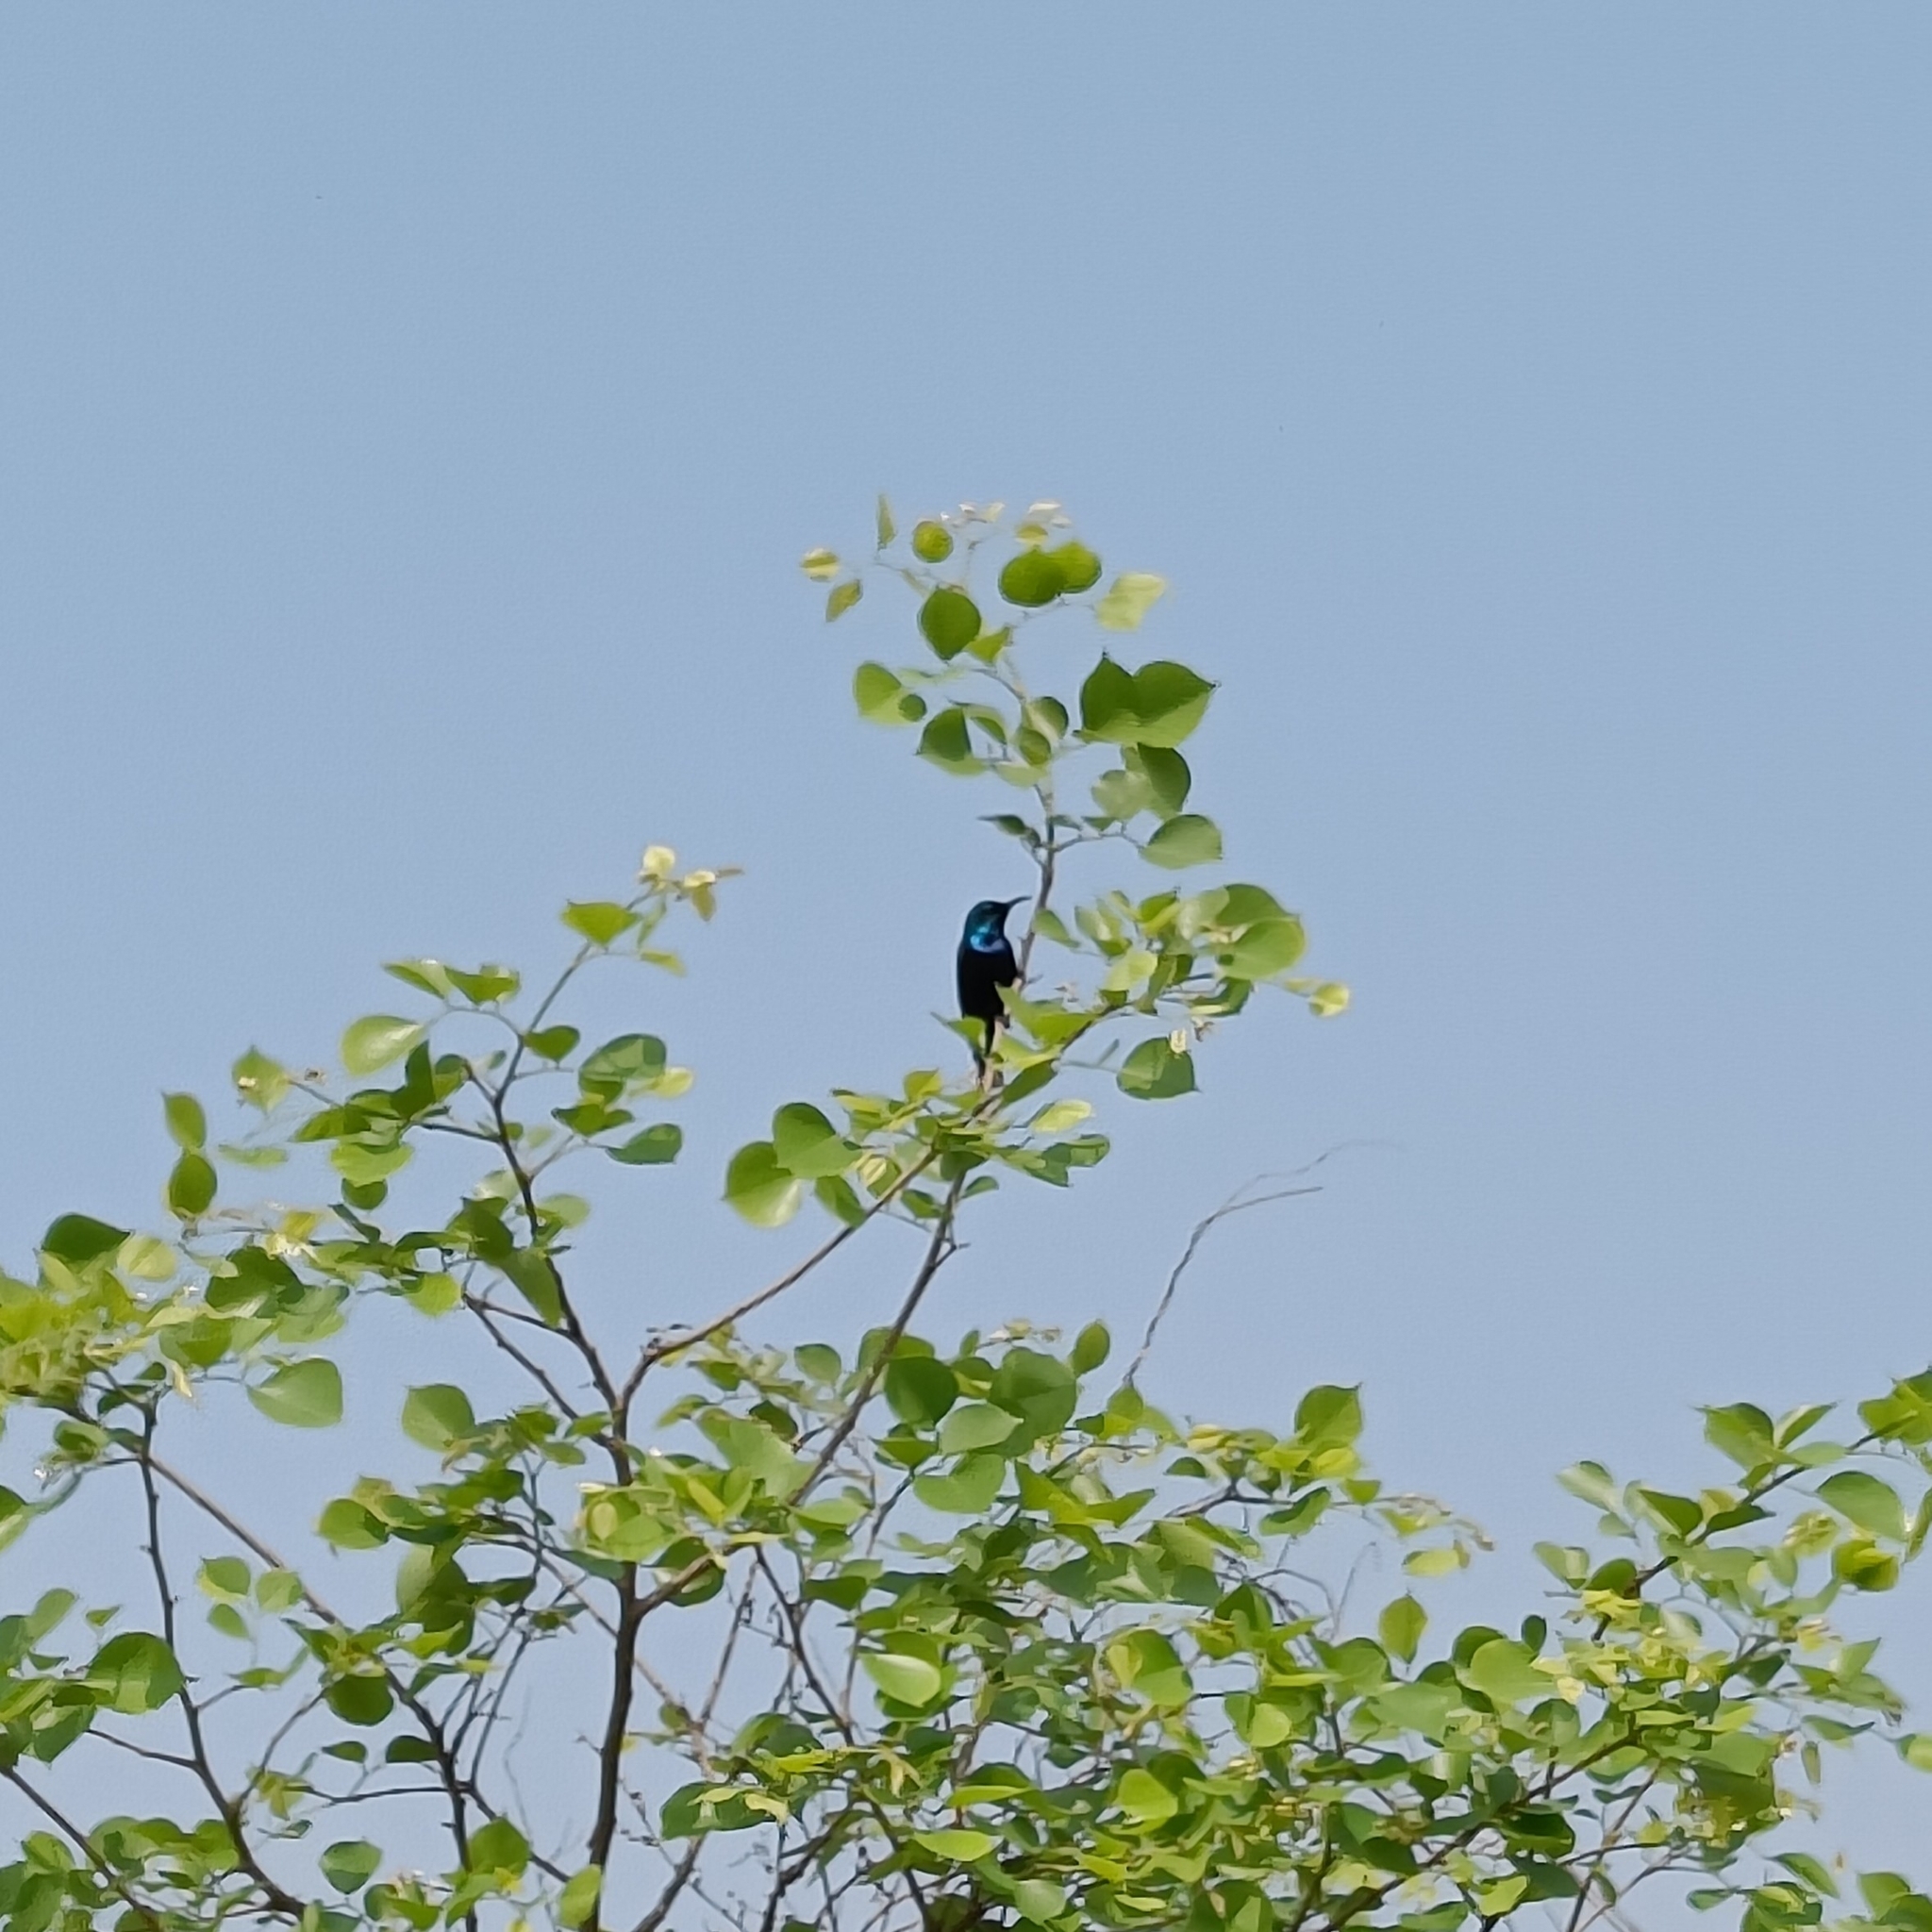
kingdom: Animalia
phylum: Chordata
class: Aves
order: Passeriformes
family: Nectariniidae
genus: Cinnyris
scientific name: Cinnyris asiaticus
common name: Purple sunbird
